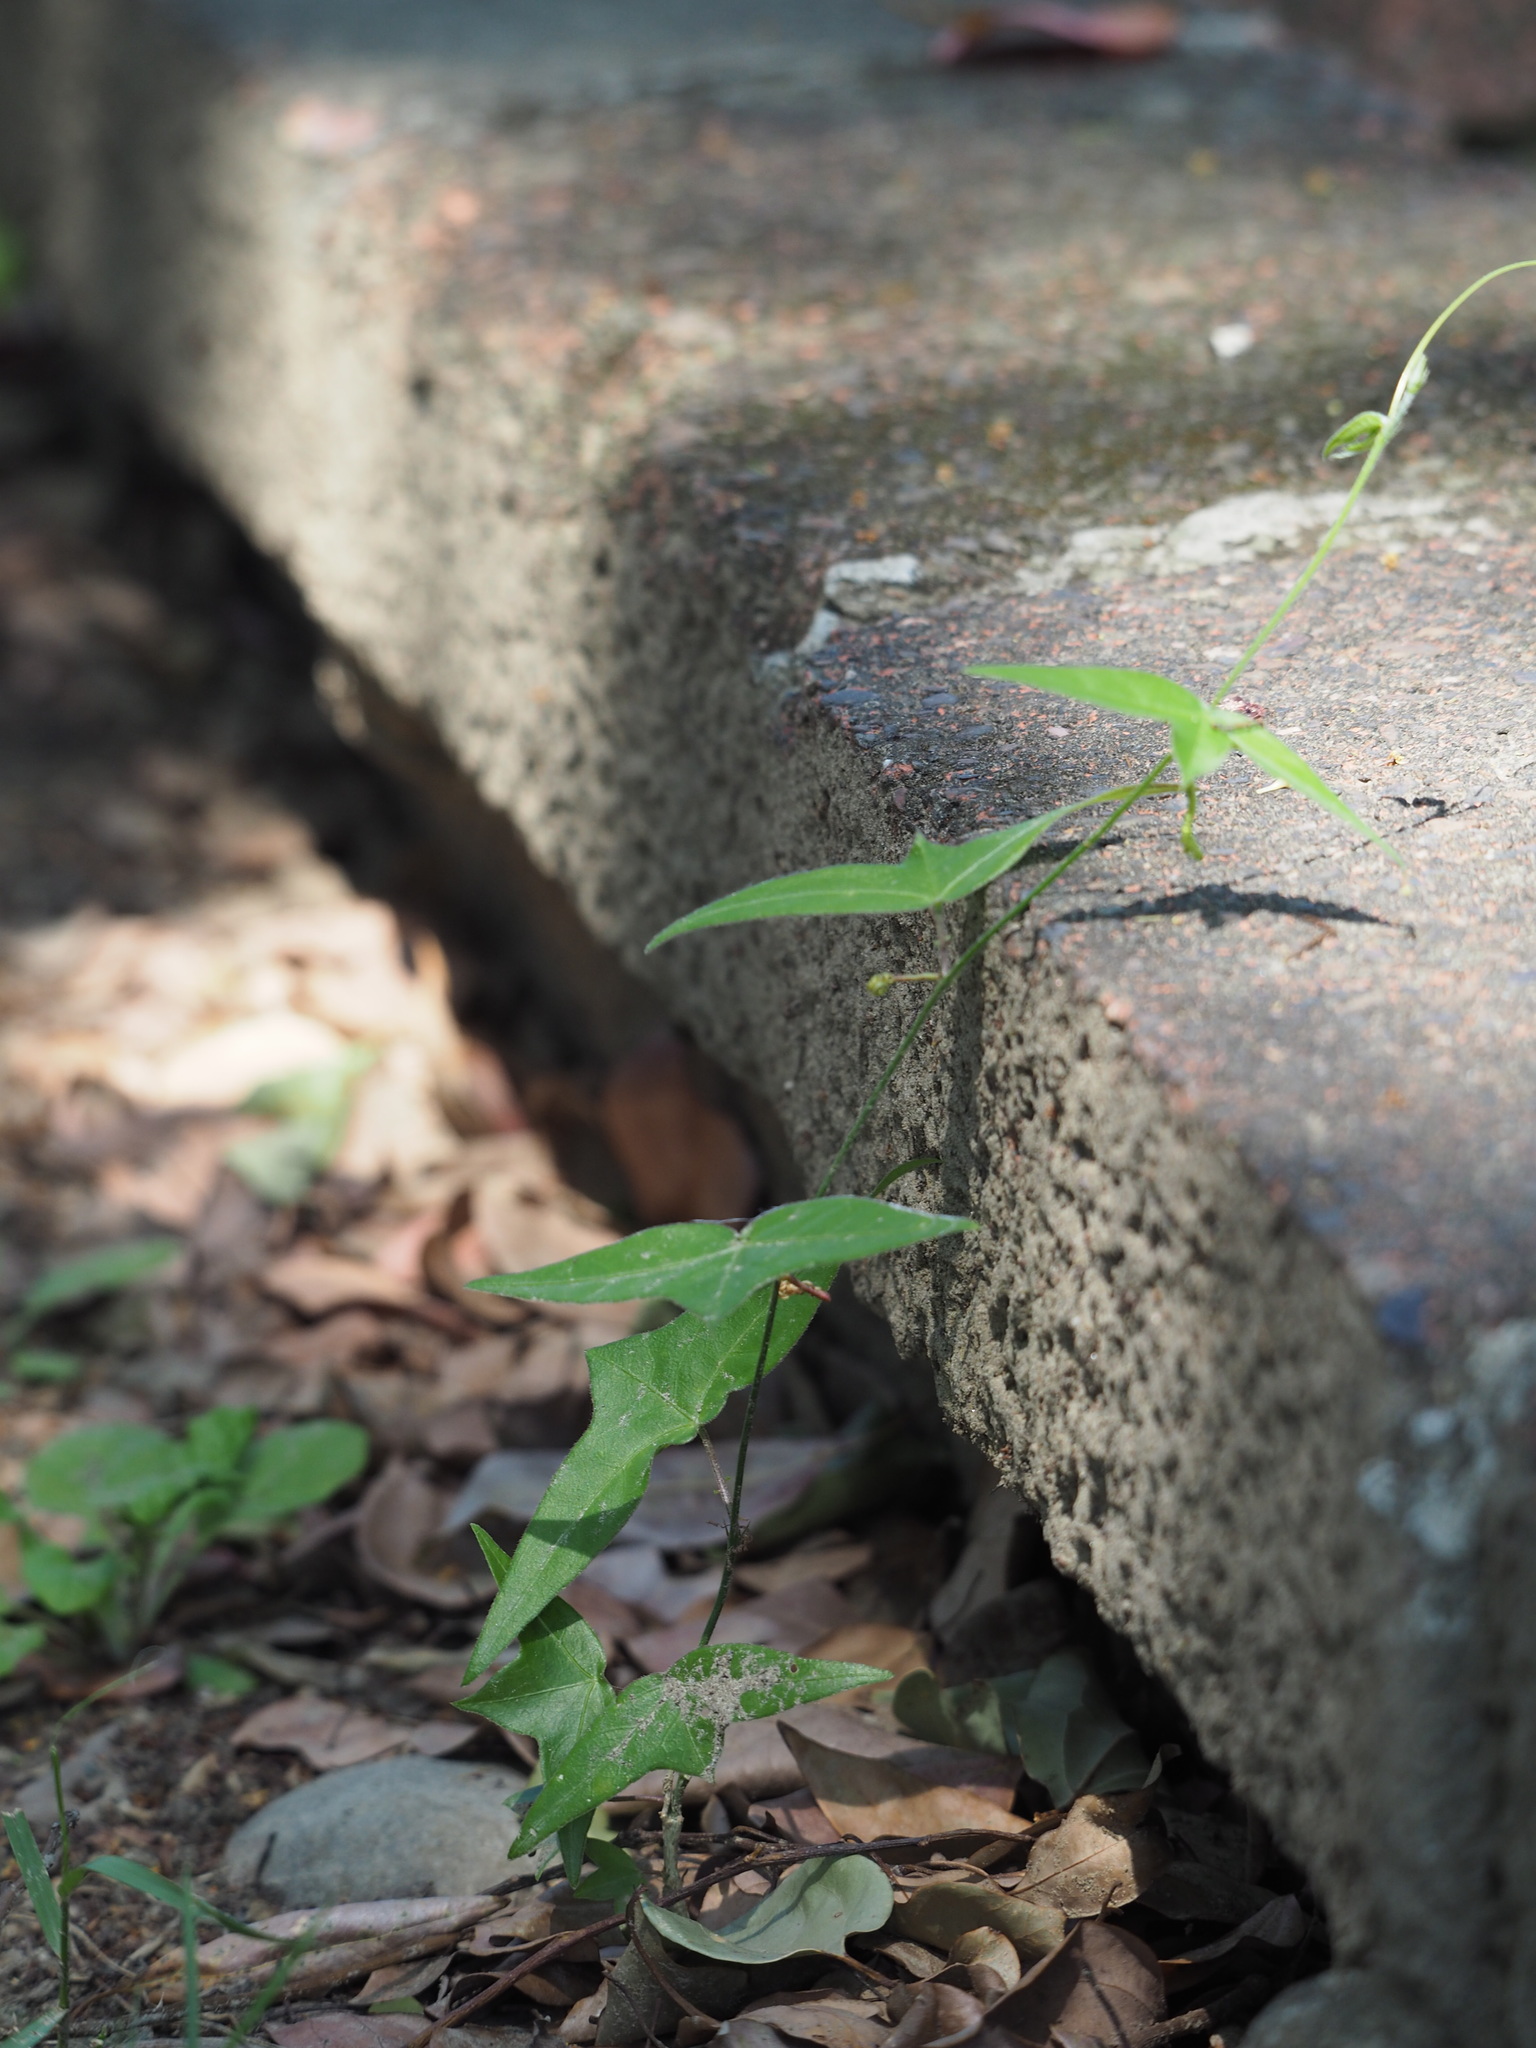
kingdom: Plantae
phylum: Tracheophyta
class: Magnoliopsida
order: Malpighiales
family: Passifloraceae
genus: Passiflora
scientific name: Passiflora suberosa
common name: Wild passionfruit
